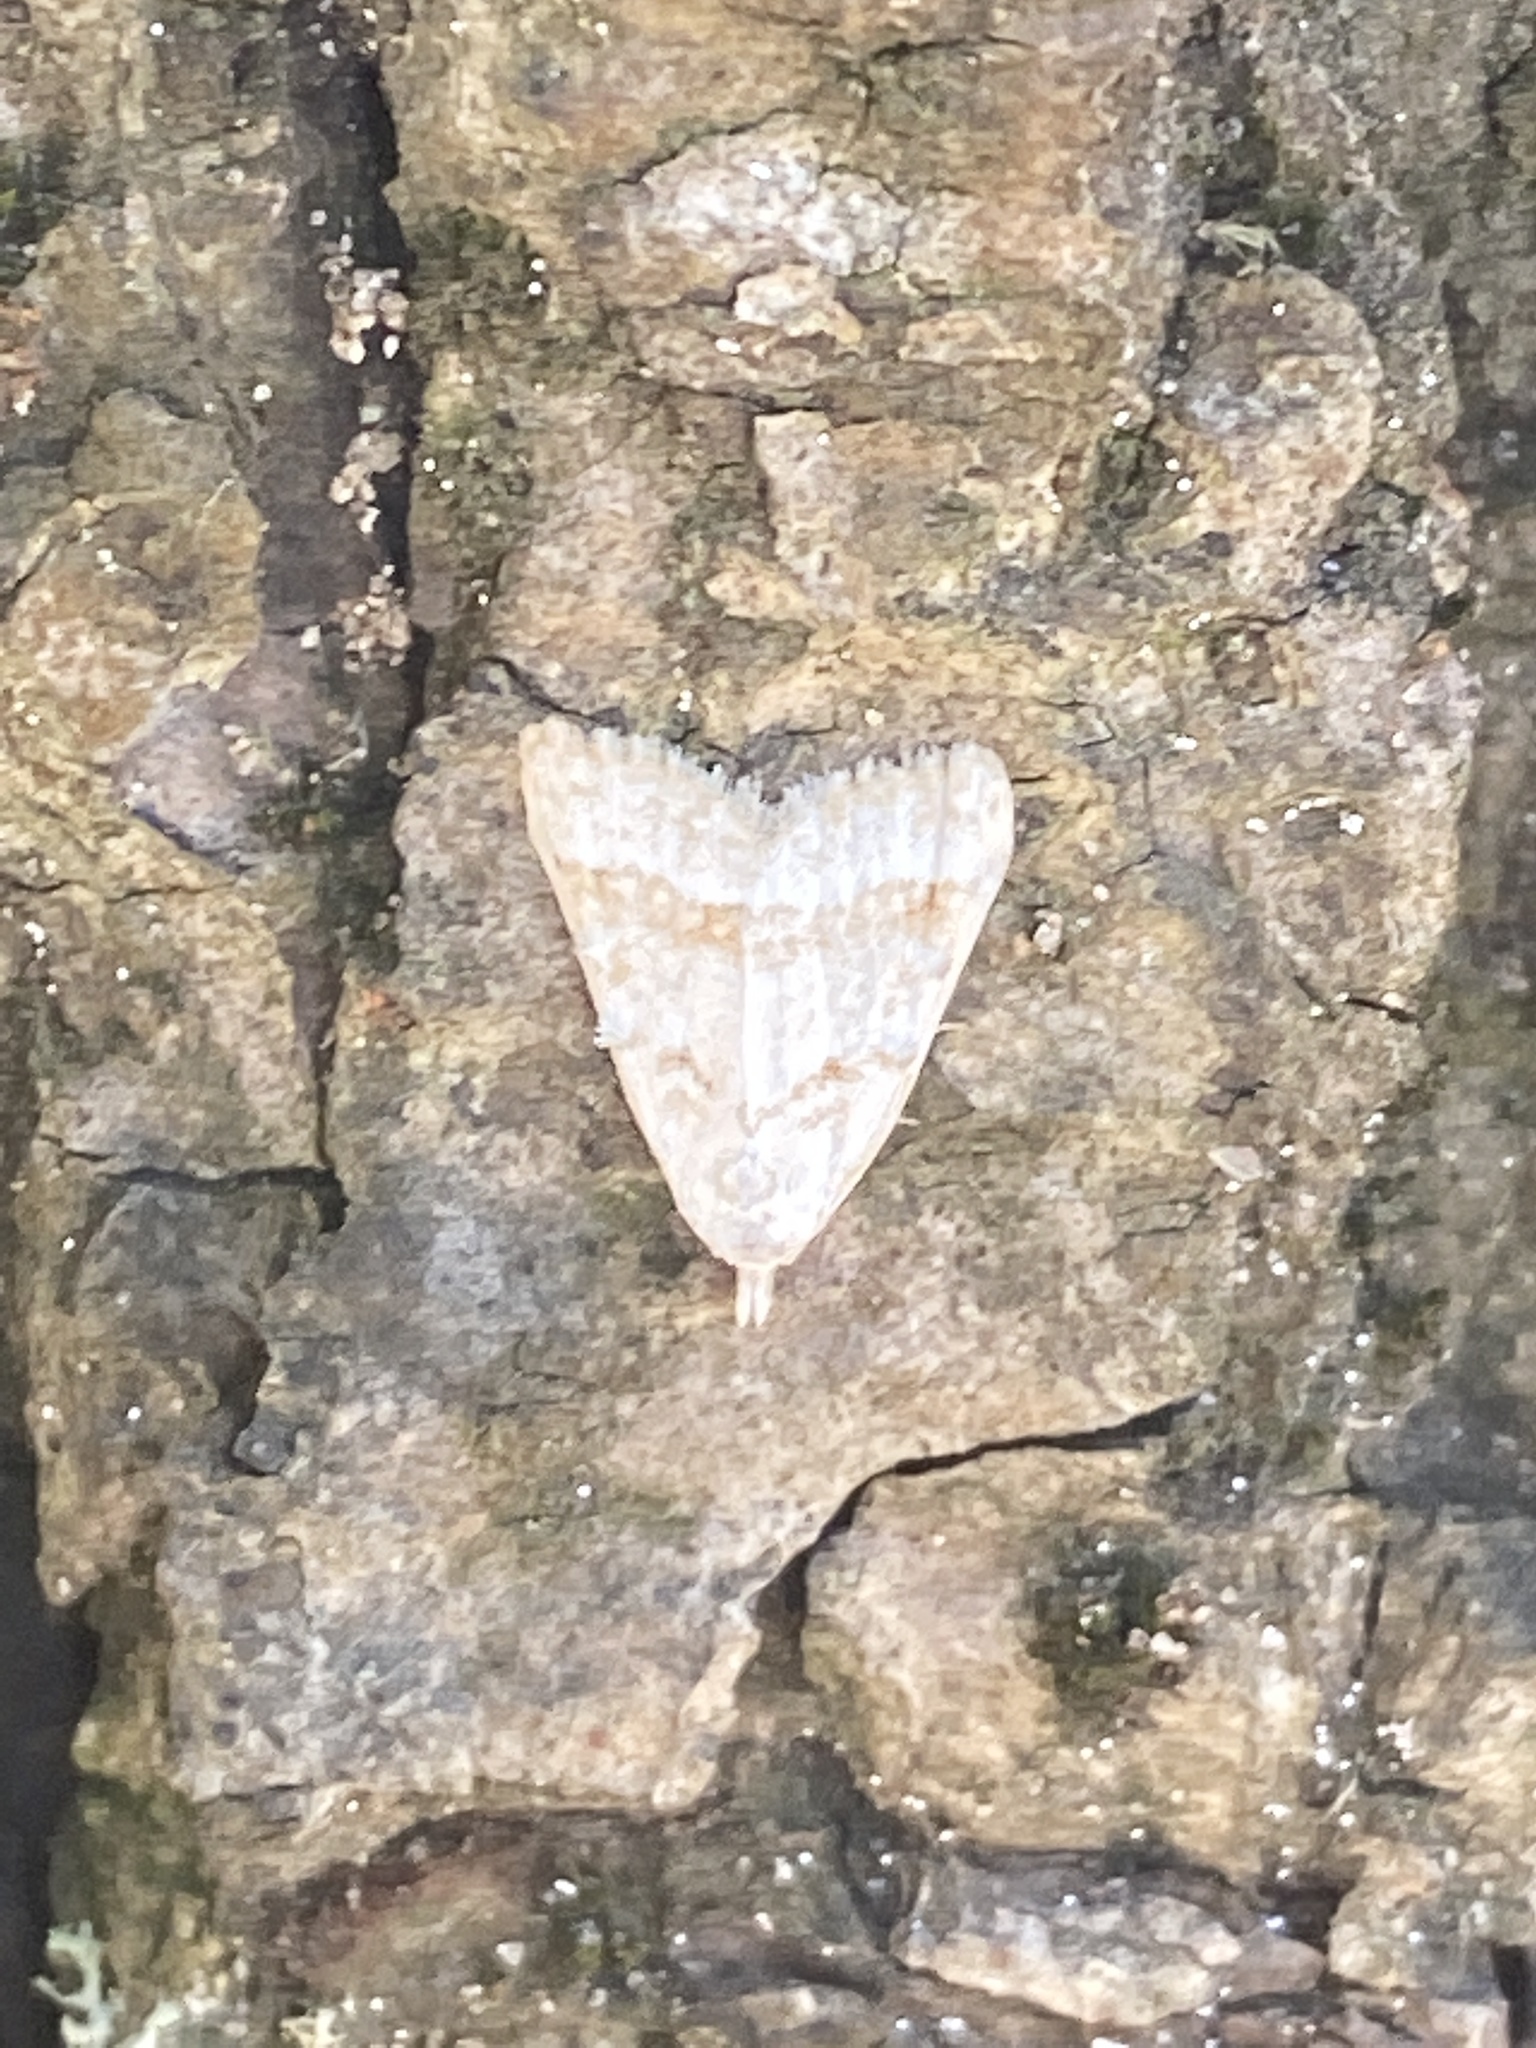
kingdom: Animalia
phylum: Arthropoda
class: Insecta
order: Lepidoptera
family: Nolidae
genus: Nola
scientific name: Nola aerugula
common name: Scarce black arches
